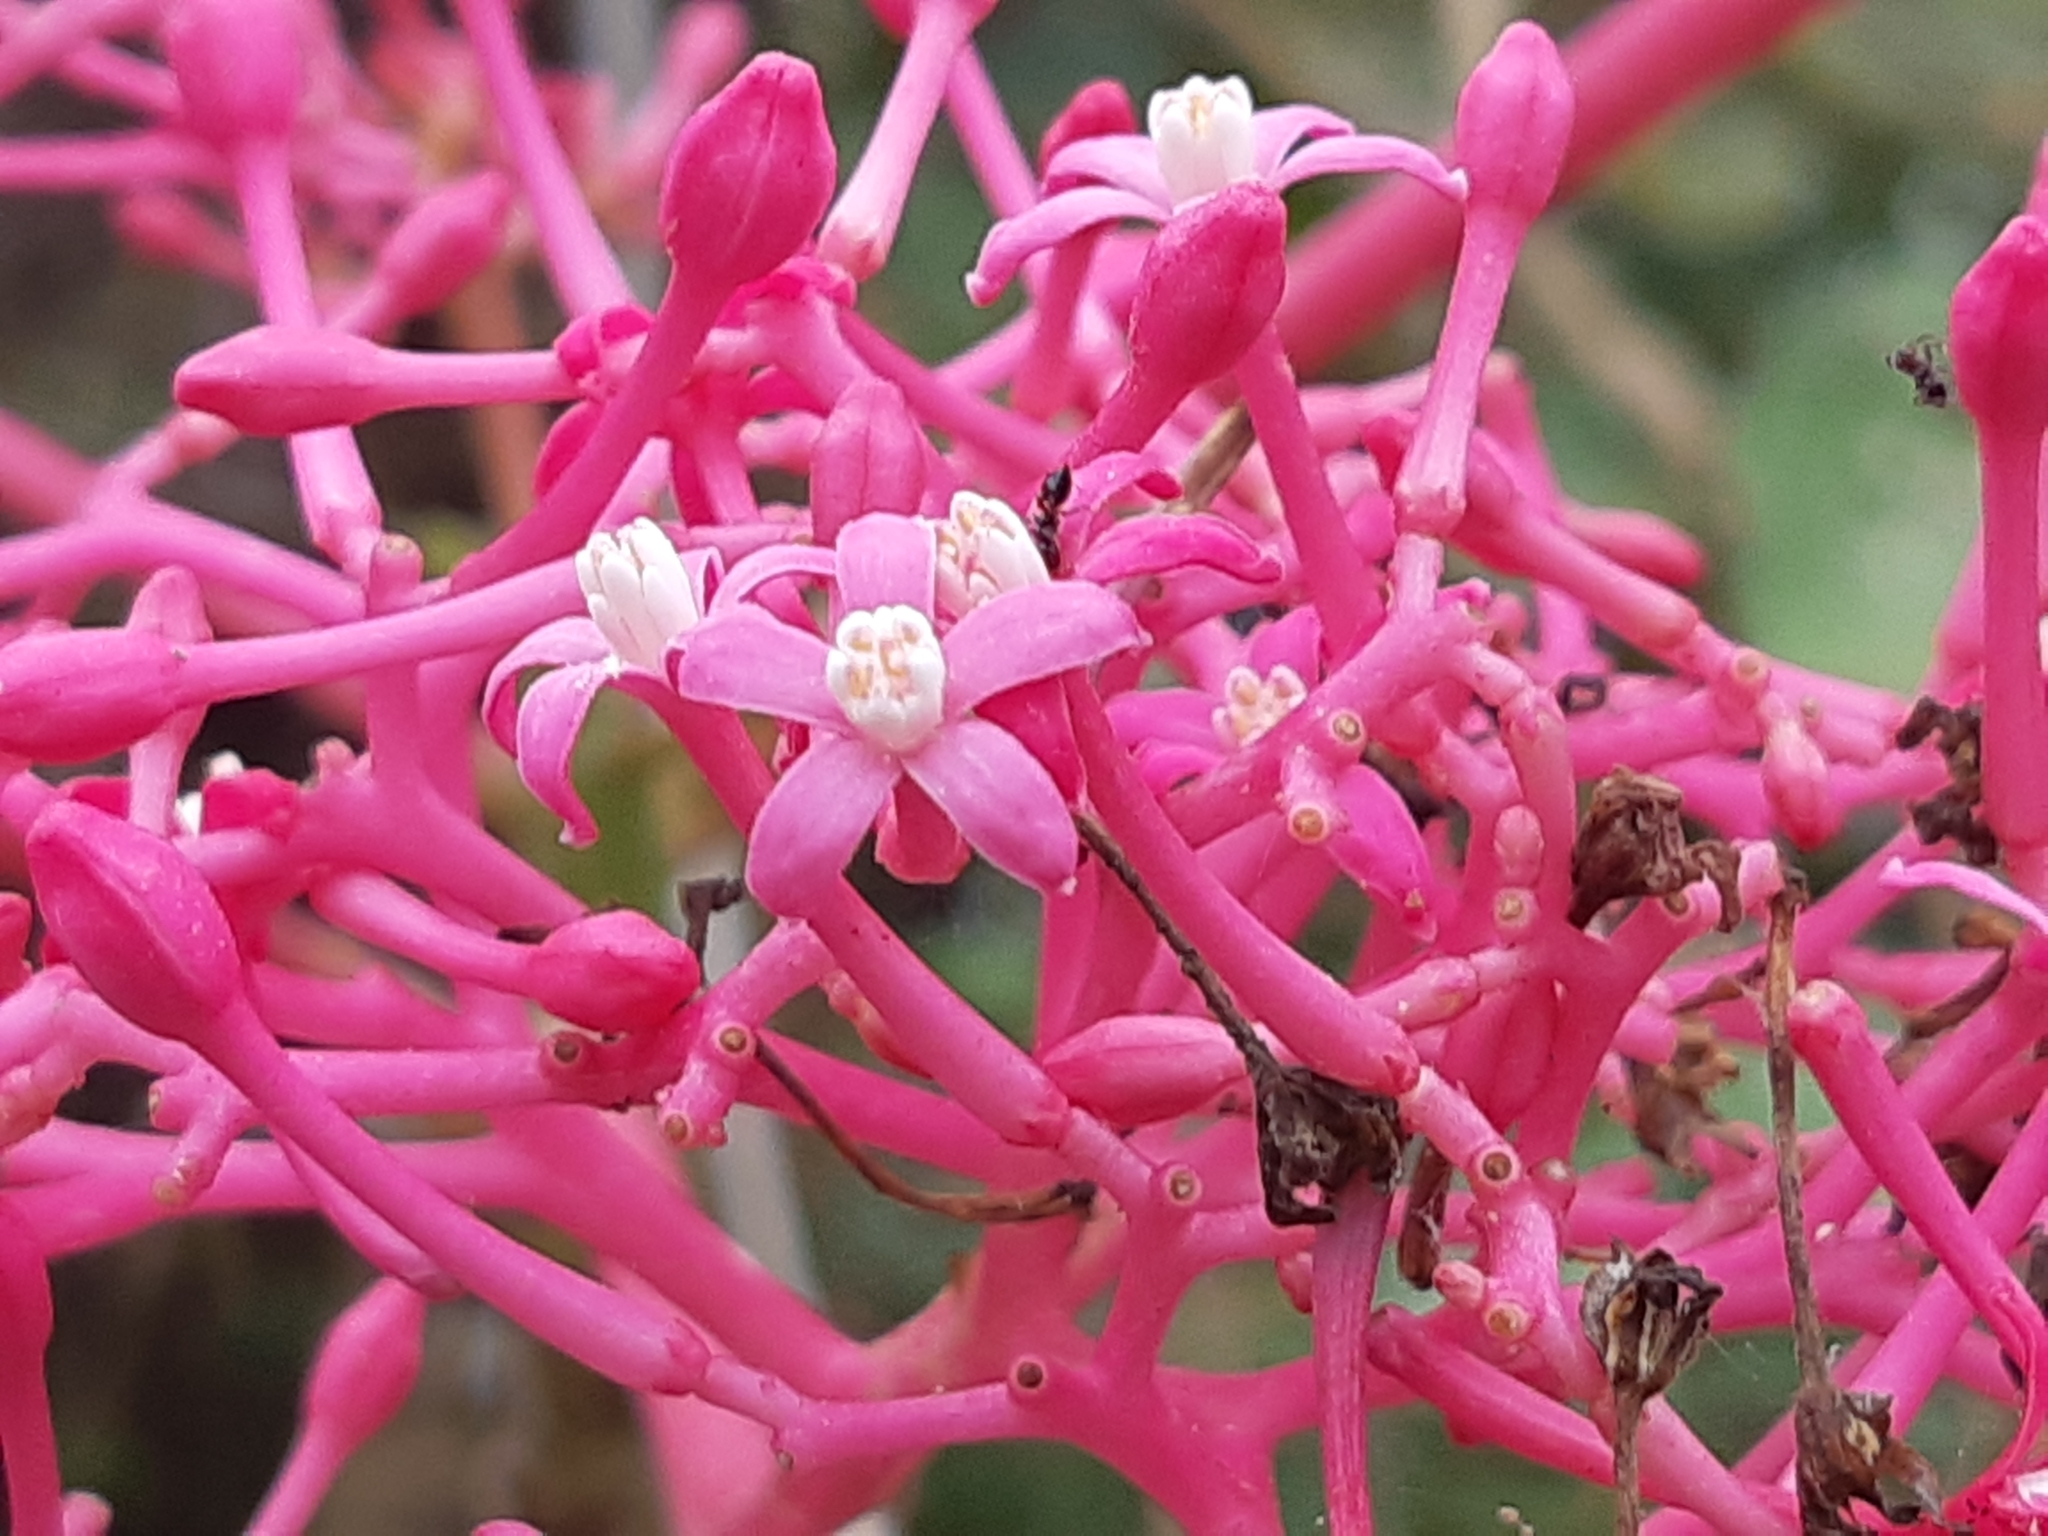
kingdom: Plantae
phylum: Tracheophyta
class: Magnoliopsida
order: Brassicales
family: Caricaceae
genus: Vasconcellea
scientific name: Vasconcellea parviflora
